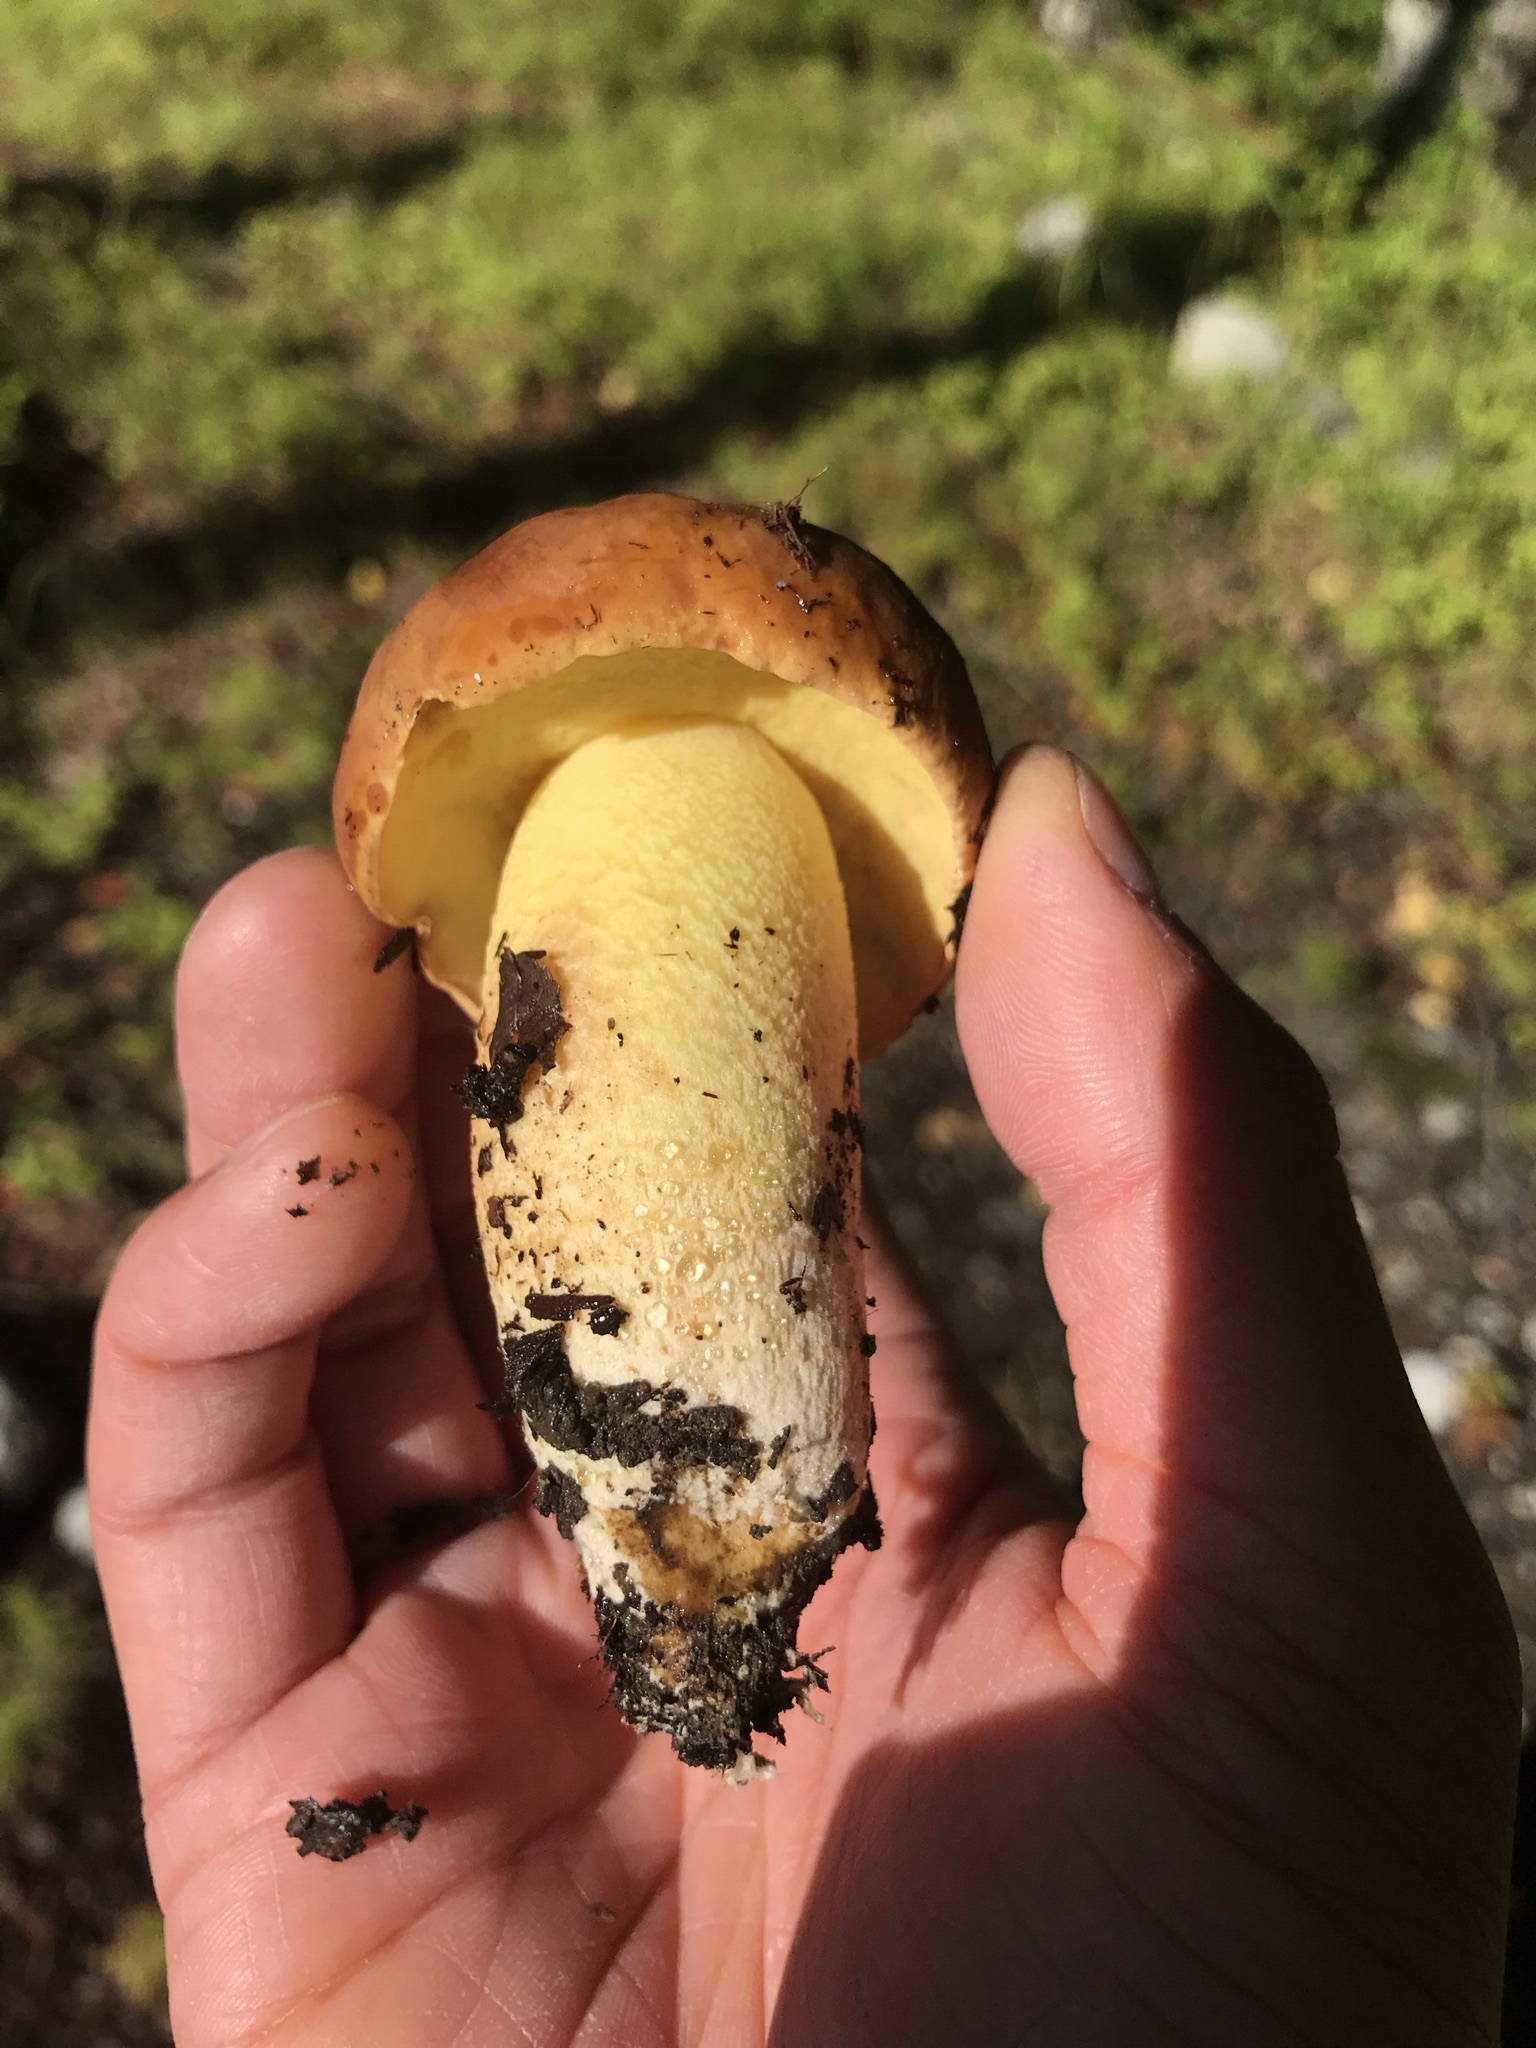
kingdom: Fungi
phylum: Basidiomycota
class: Agaricomycetes
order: Boletales
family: Boletaceae
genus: Hemileccinum
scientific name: Hemileccinum subglabripes
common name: Smoothish-stemmed bolete
